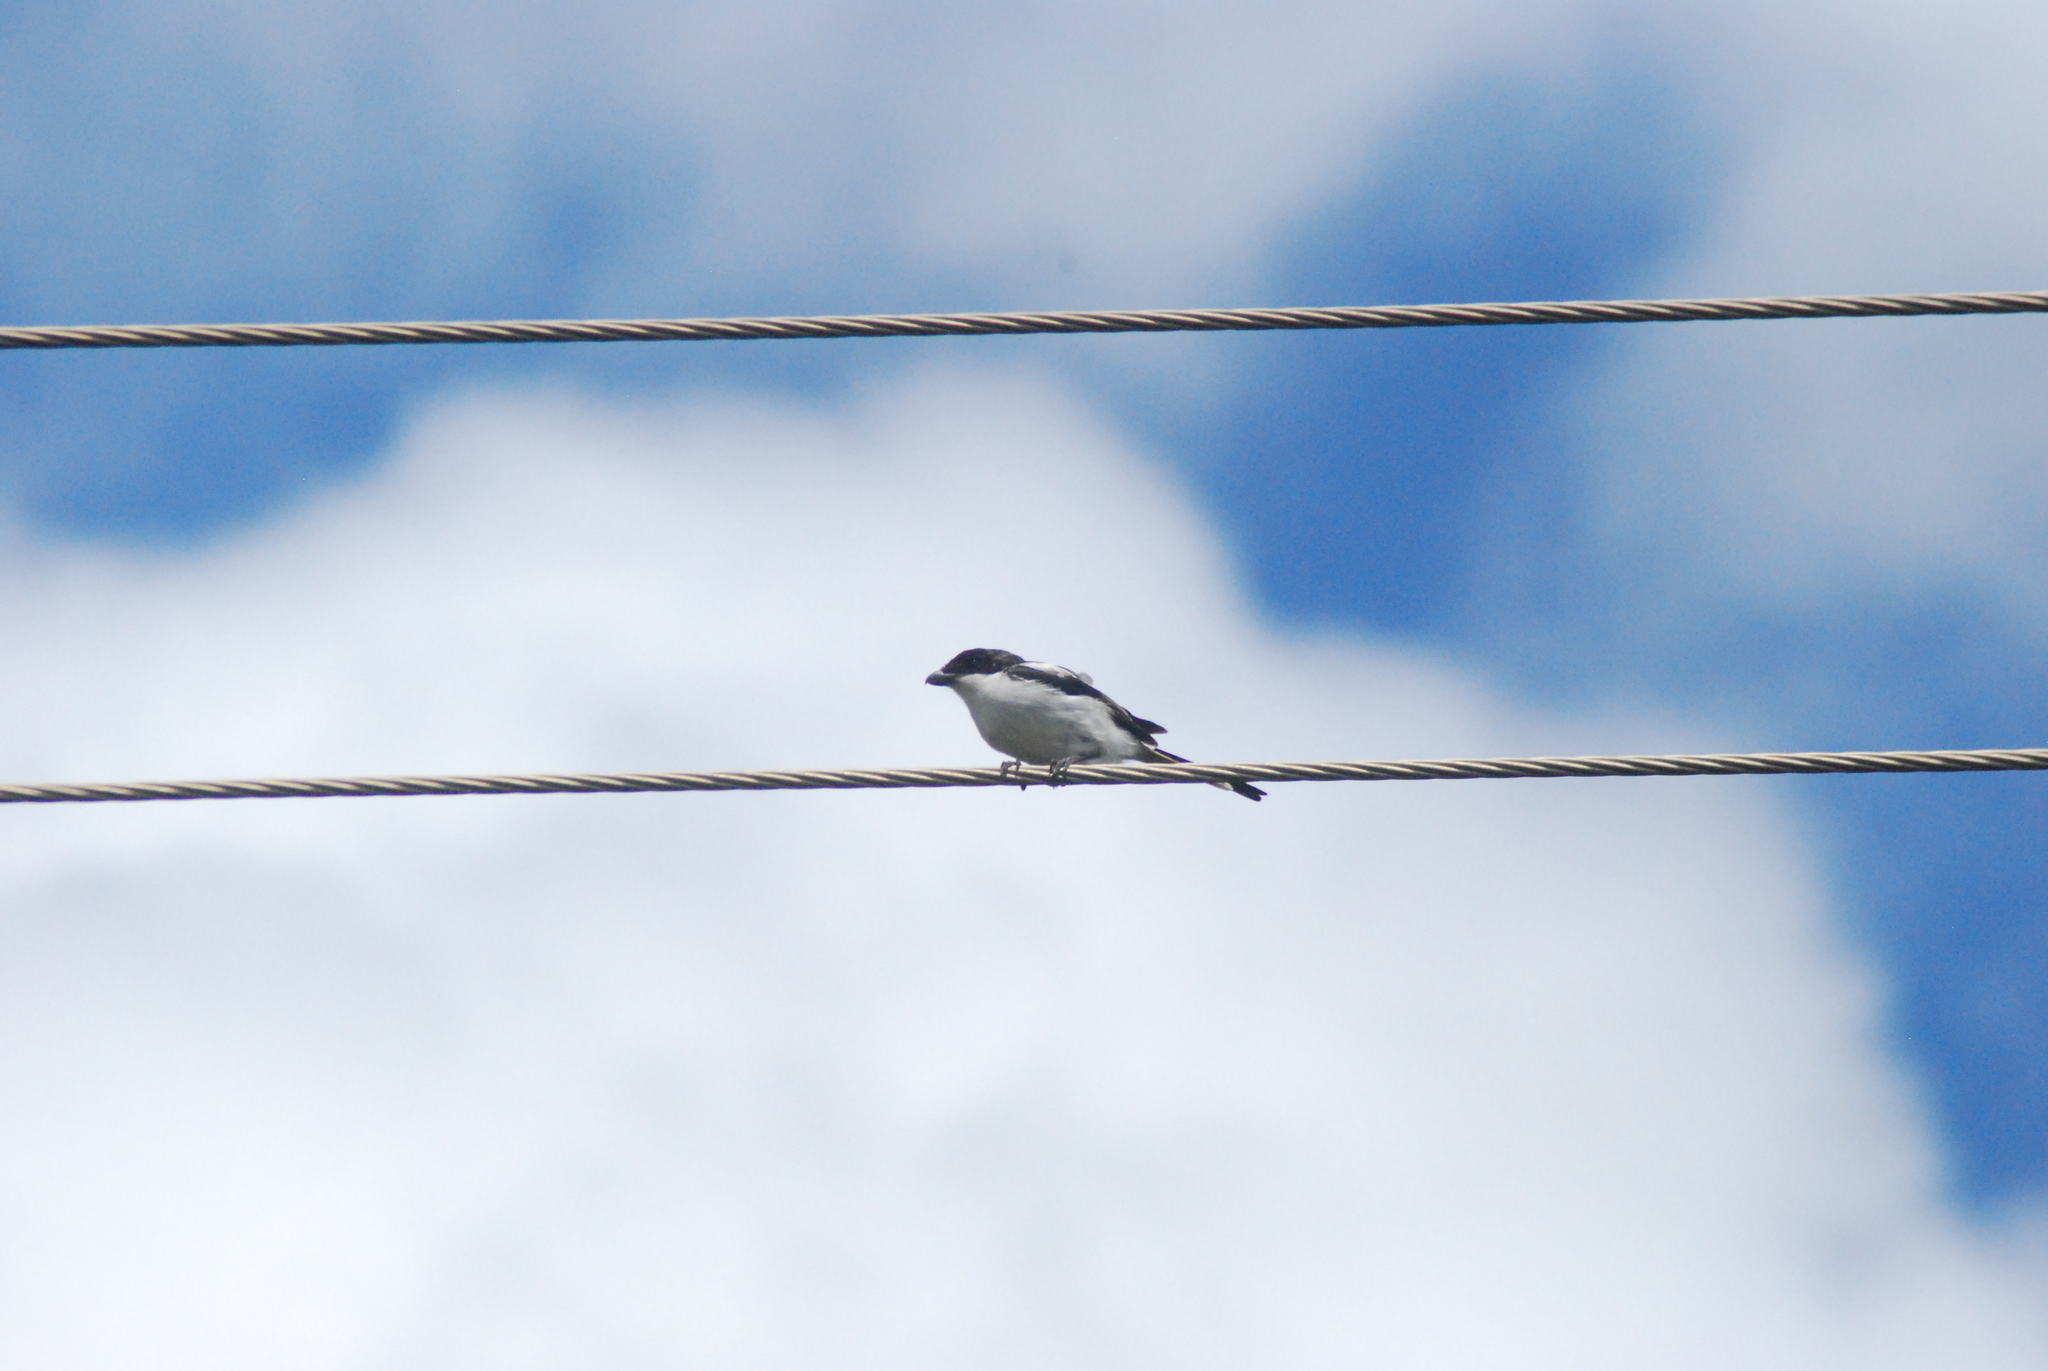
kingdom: Animalia
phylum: Chordata
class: Aves
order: Passeriformes
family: Laniidae
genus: Lanius
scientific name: Lanius humeralis
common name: Northern fiscal
